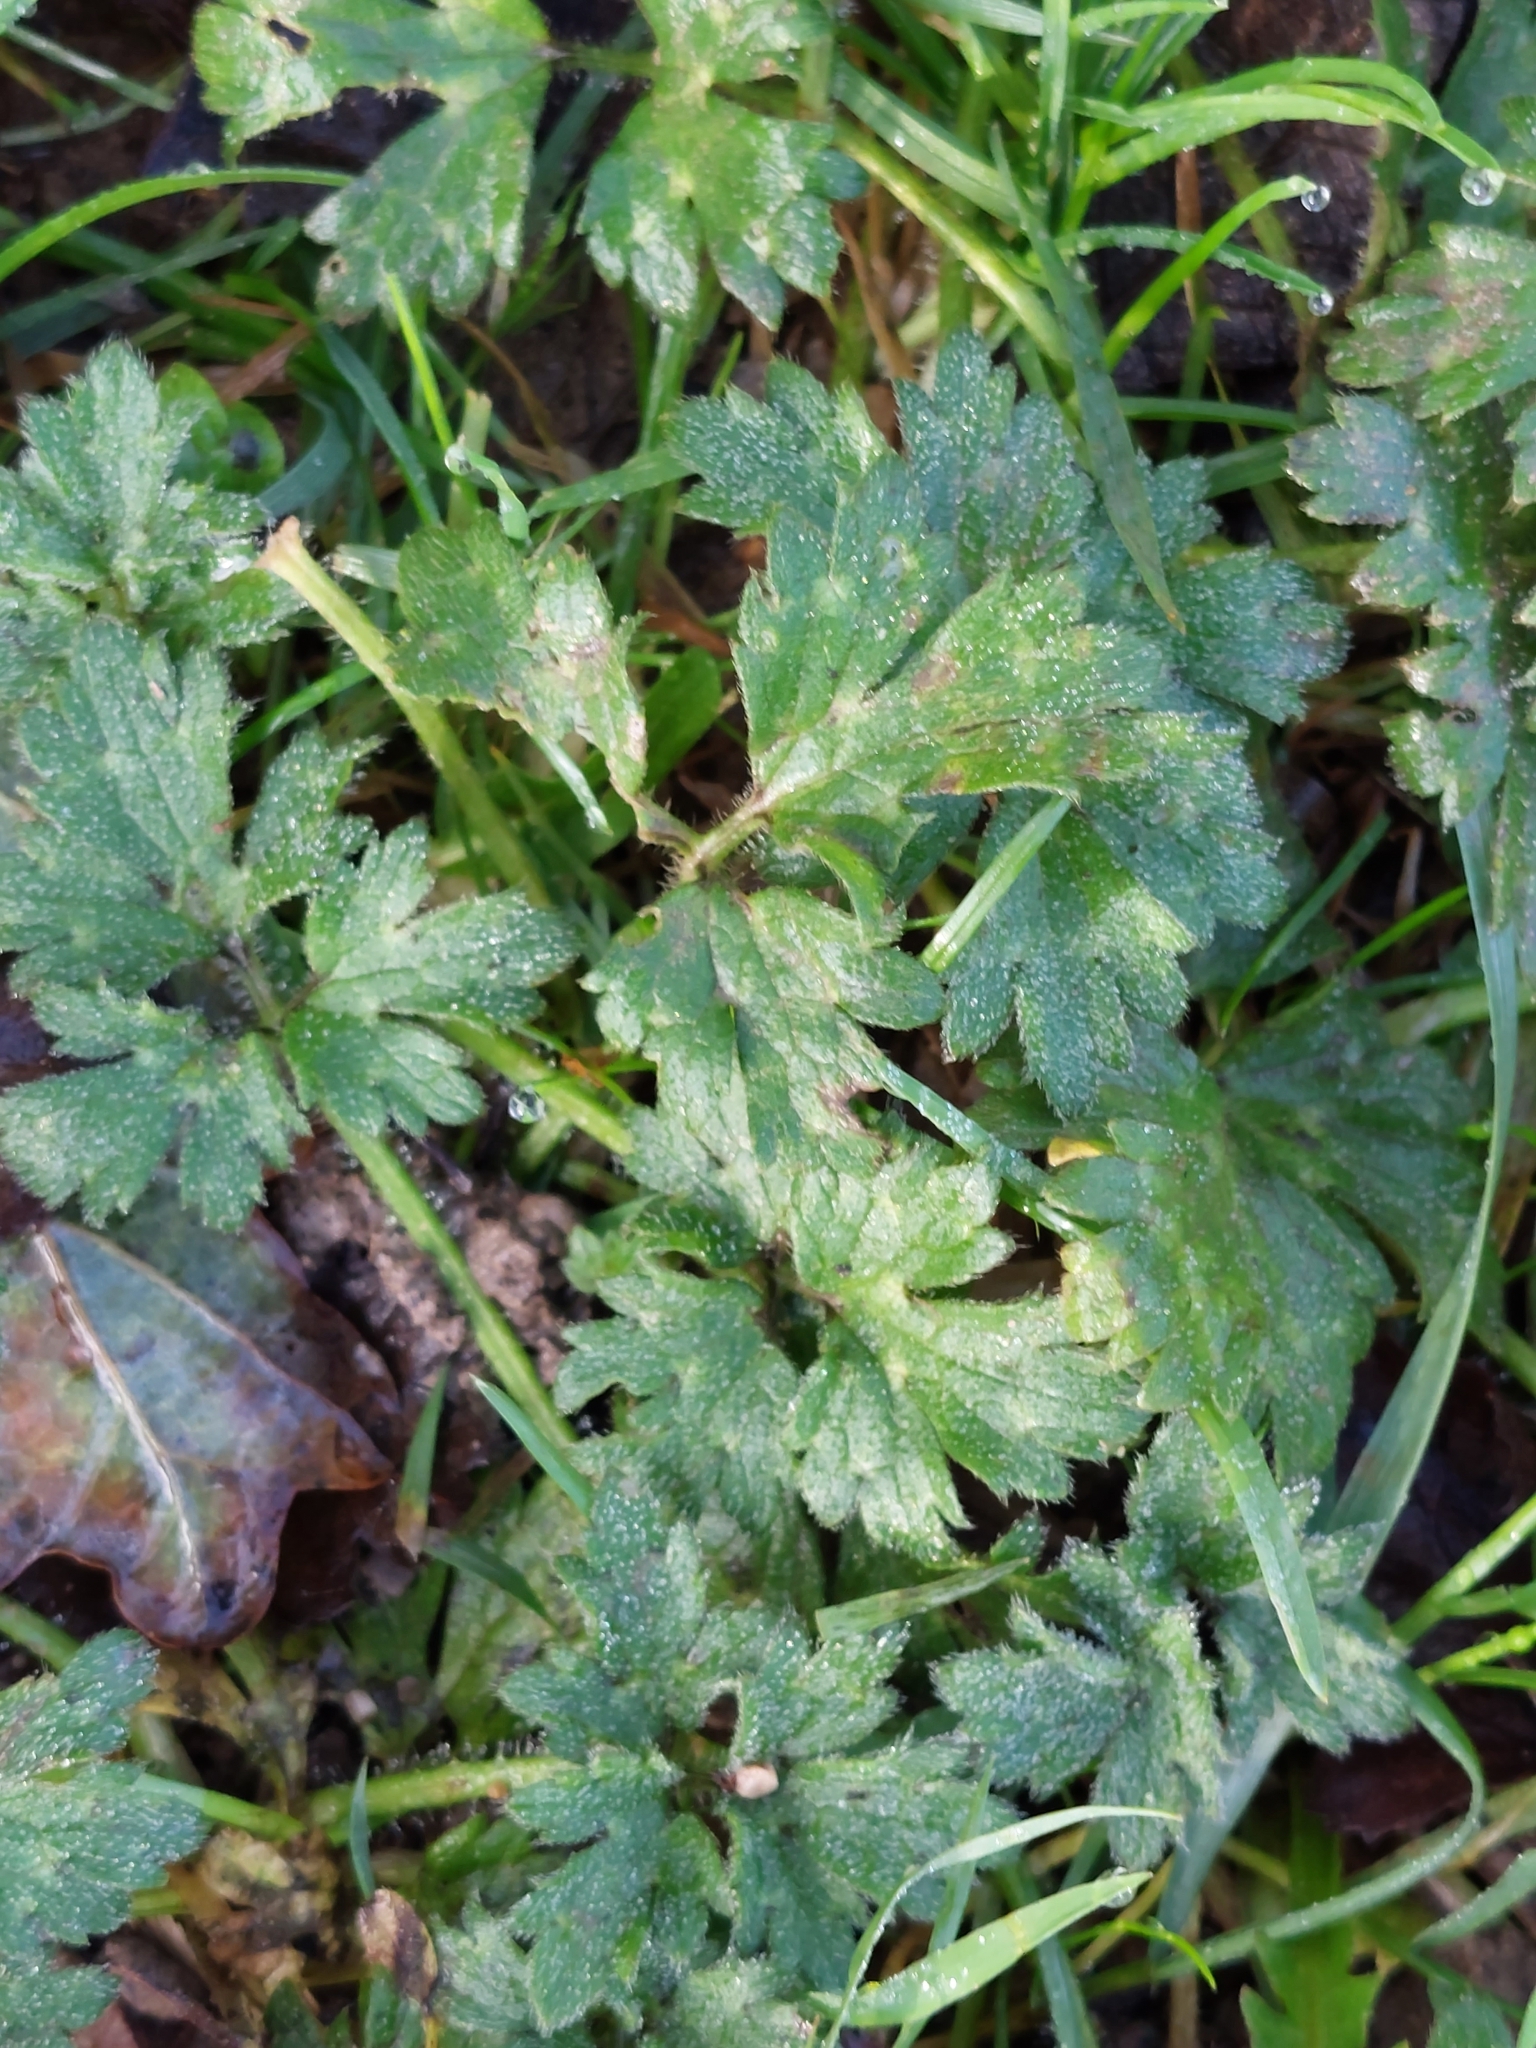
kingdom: Plantae
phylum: Tracheophyta
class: Magnoliopsida
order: Ranunculales
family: Ranunculaceae
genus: Ranunculus
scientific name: Ranunculus repens
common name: Creeping buttercup
